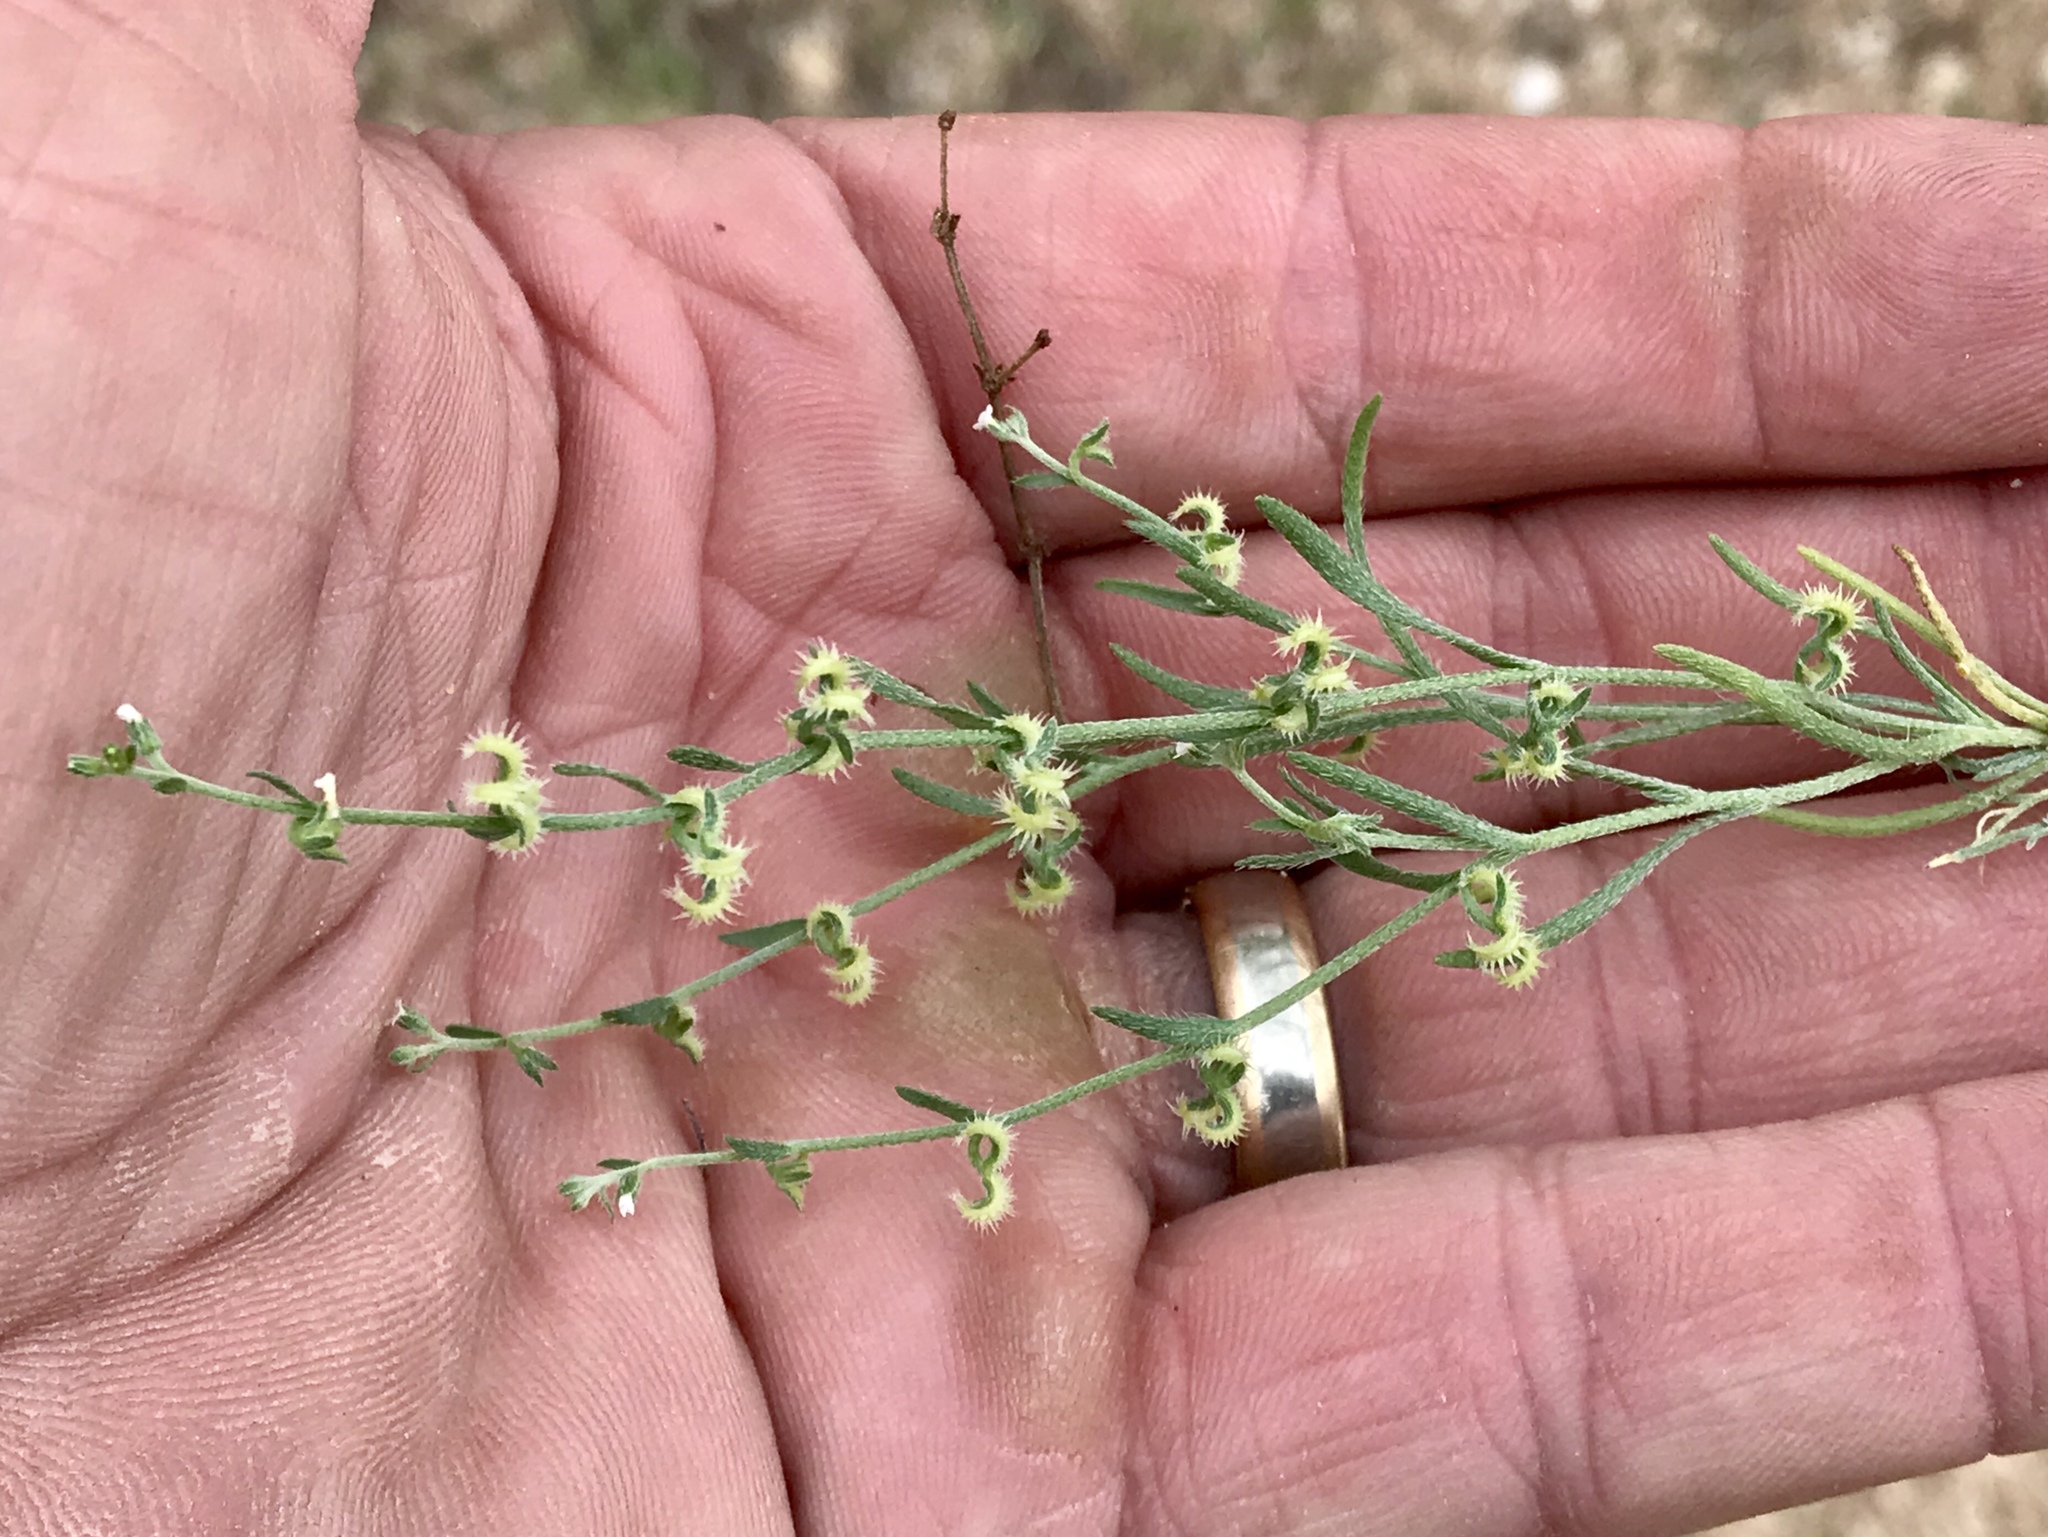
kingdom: Plantae
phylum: Tracheophyta
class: Magnoliopsida
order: Boraginales
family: Boraginaceae
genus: Pectocarya
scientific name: Pectocarya recurvata
